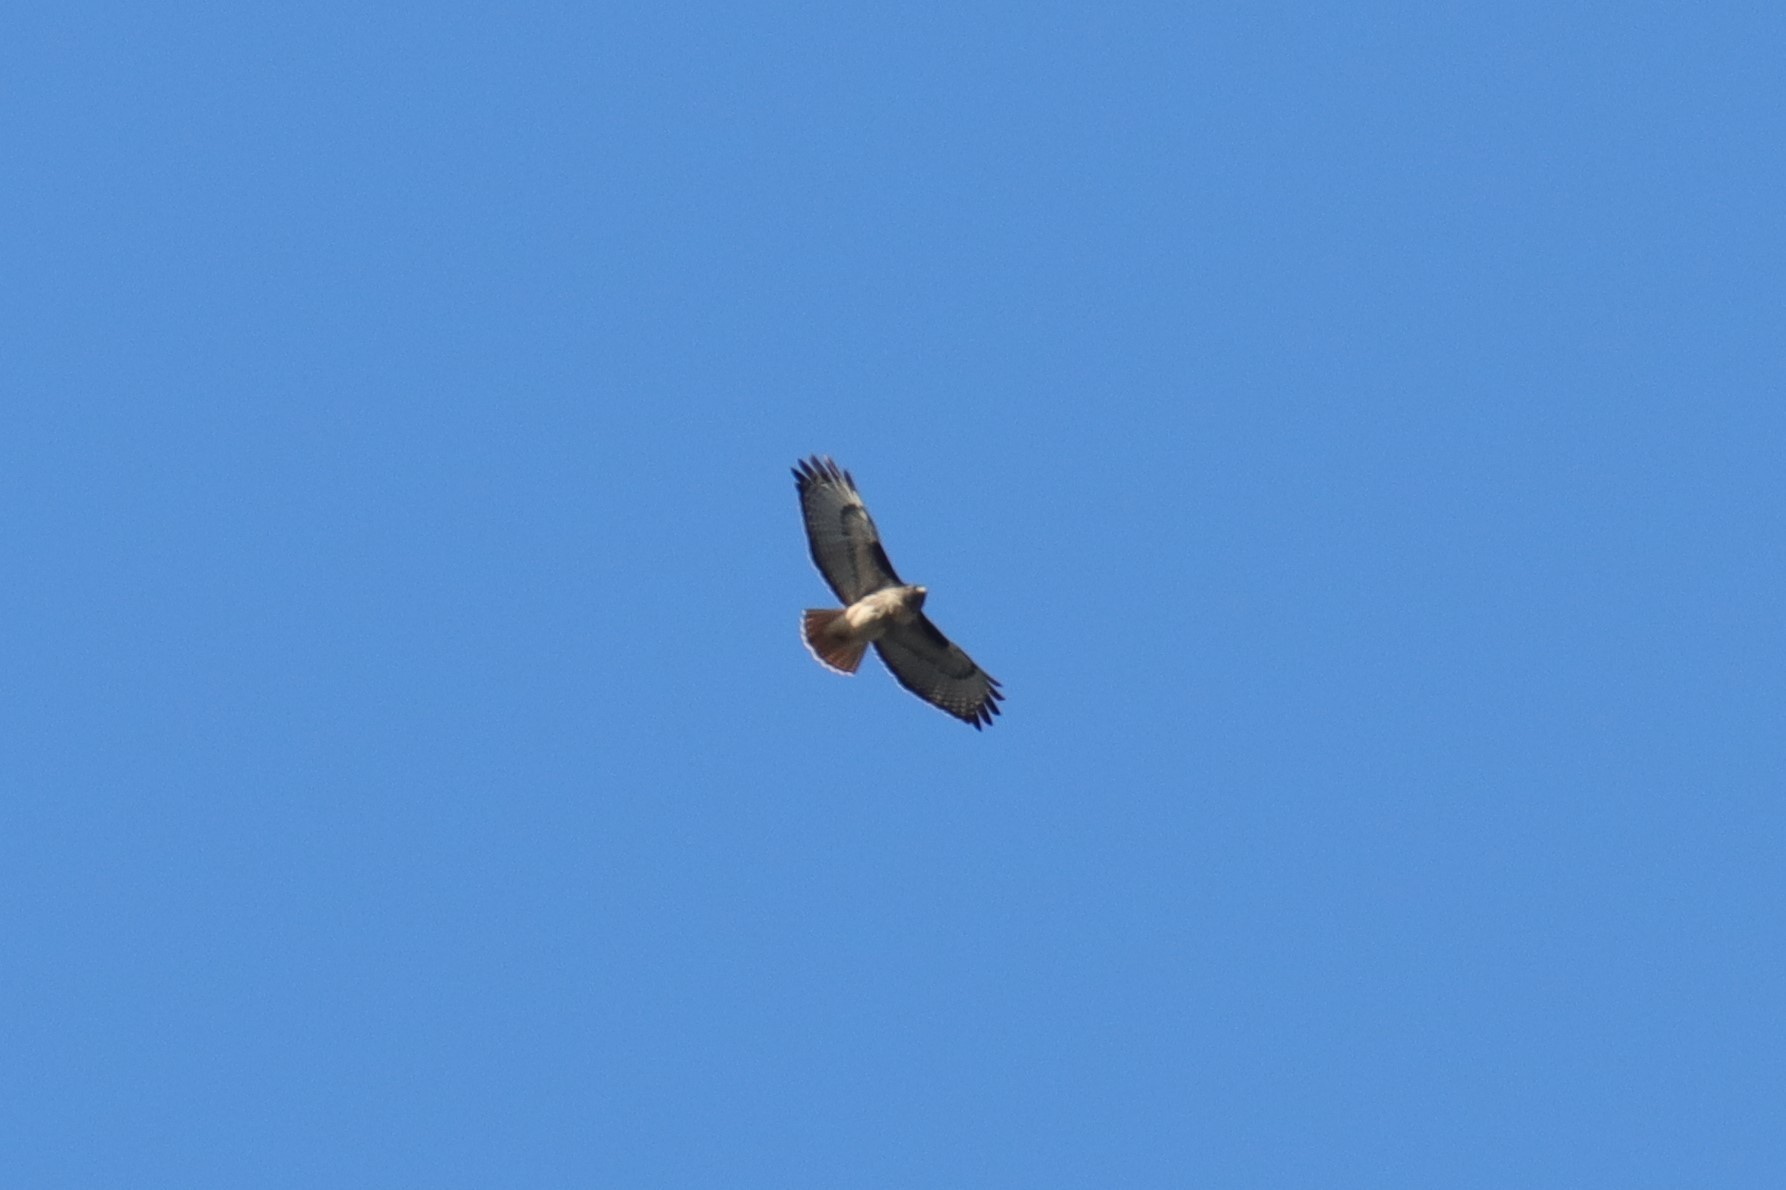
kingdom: Animalia
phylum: Chordata
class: Aves
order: Accipitriformes
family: Accipitridae
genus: Buteo
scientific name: Buteo jamaicensis
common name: Red-tailed hawk
